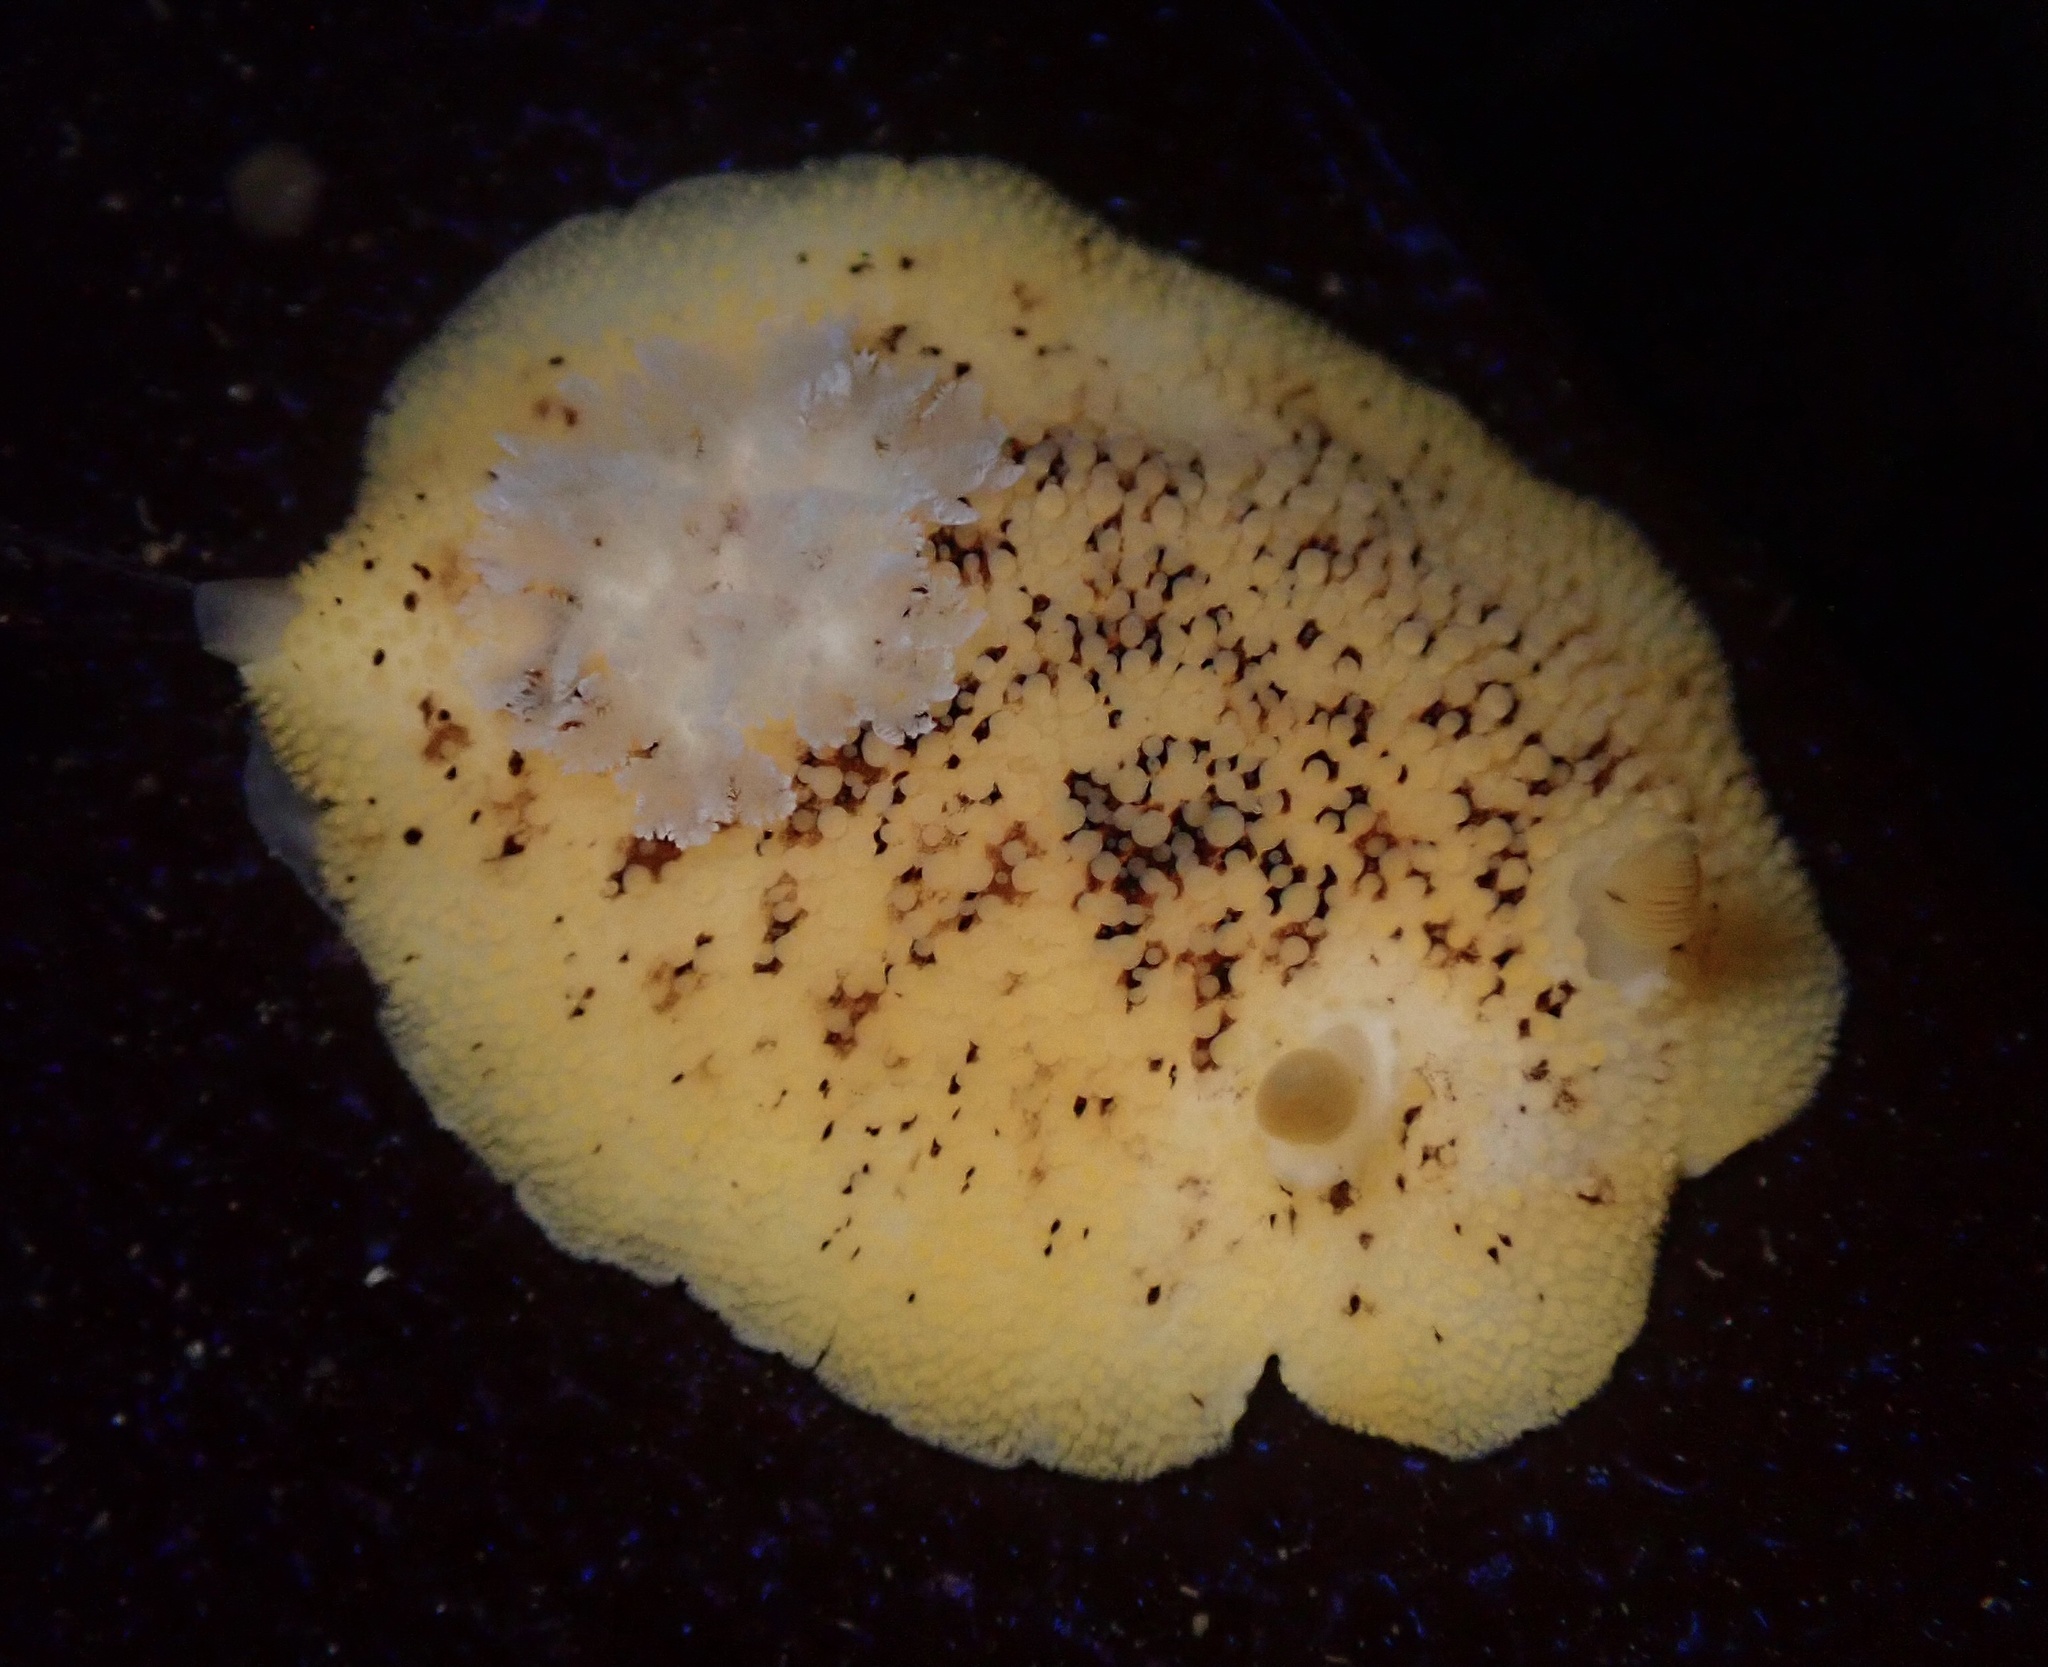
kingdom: Animalia
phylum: Mollusca
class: Gastropoda
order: Nudibranchia
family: Discodorididae
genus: Peltodoris
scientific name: Peltodoris nobilis
